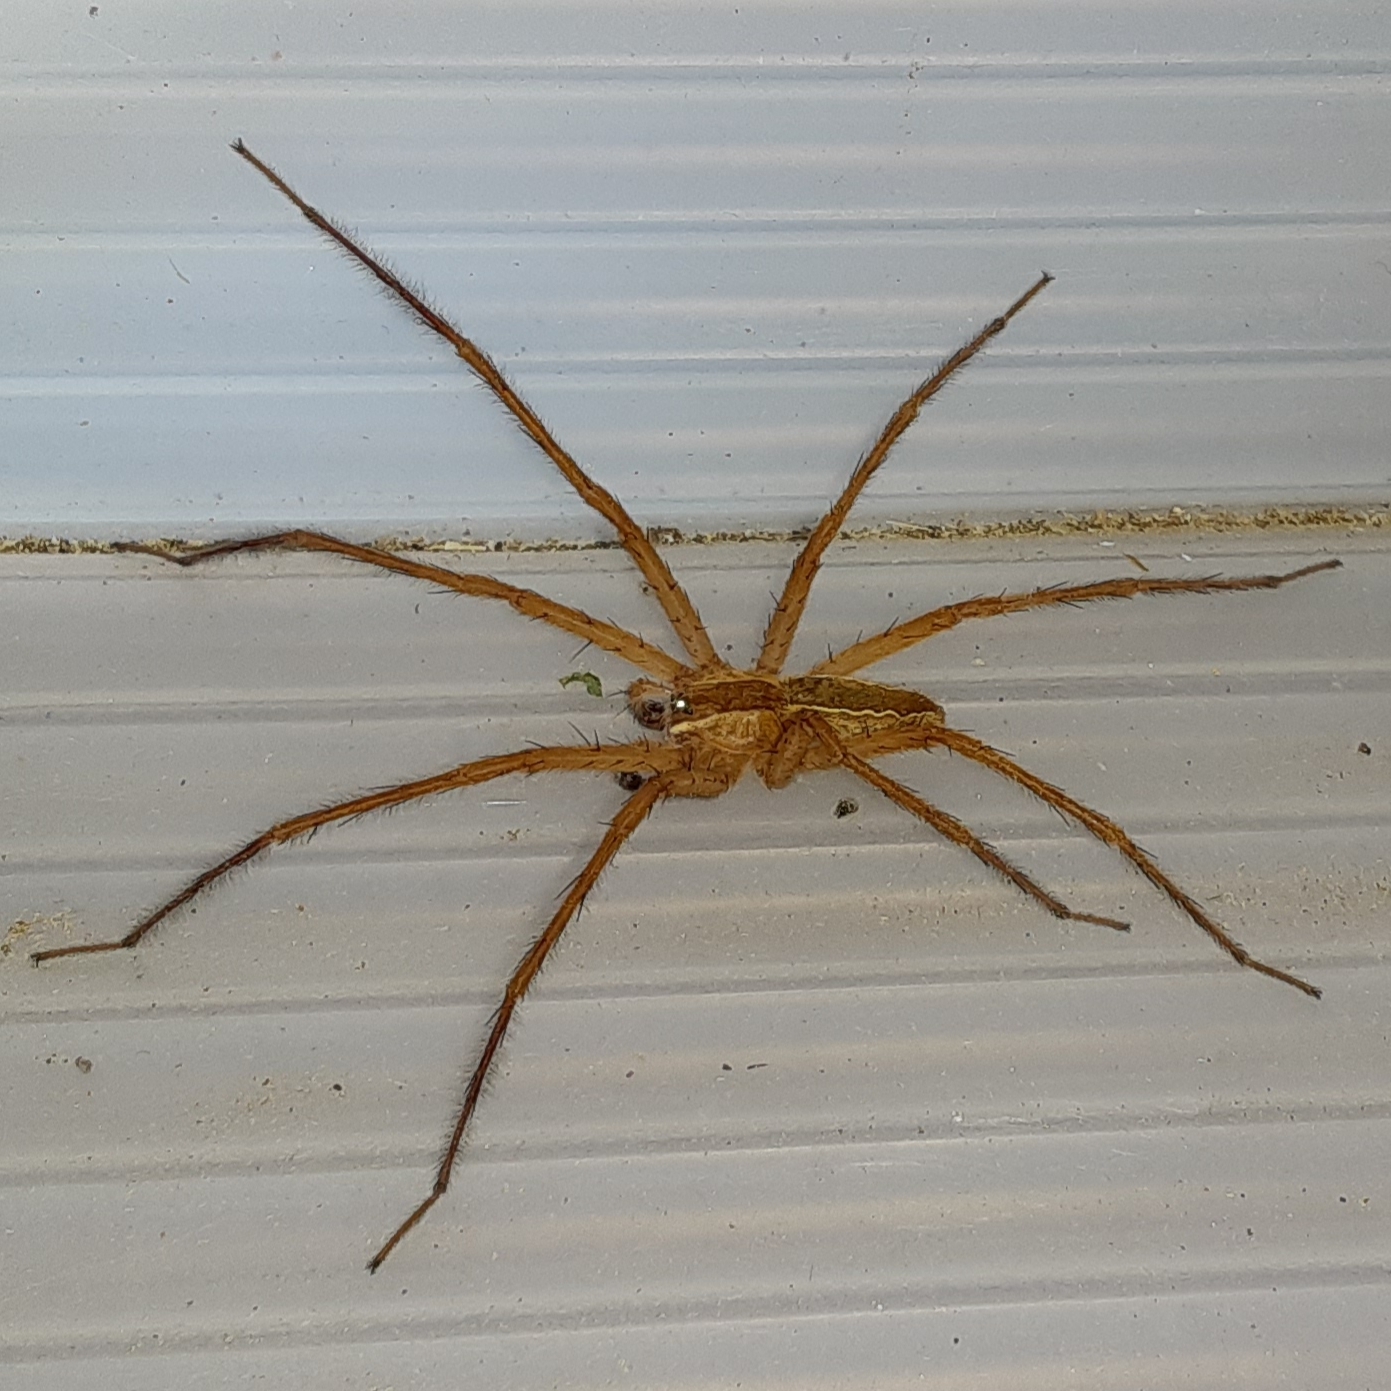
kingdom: Animalia
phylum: Arthropoda
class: Arachnida
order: Araneae
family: Pisauridae
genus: Pisaurina
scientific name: Pisaurina mira
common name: American nursery web spider
